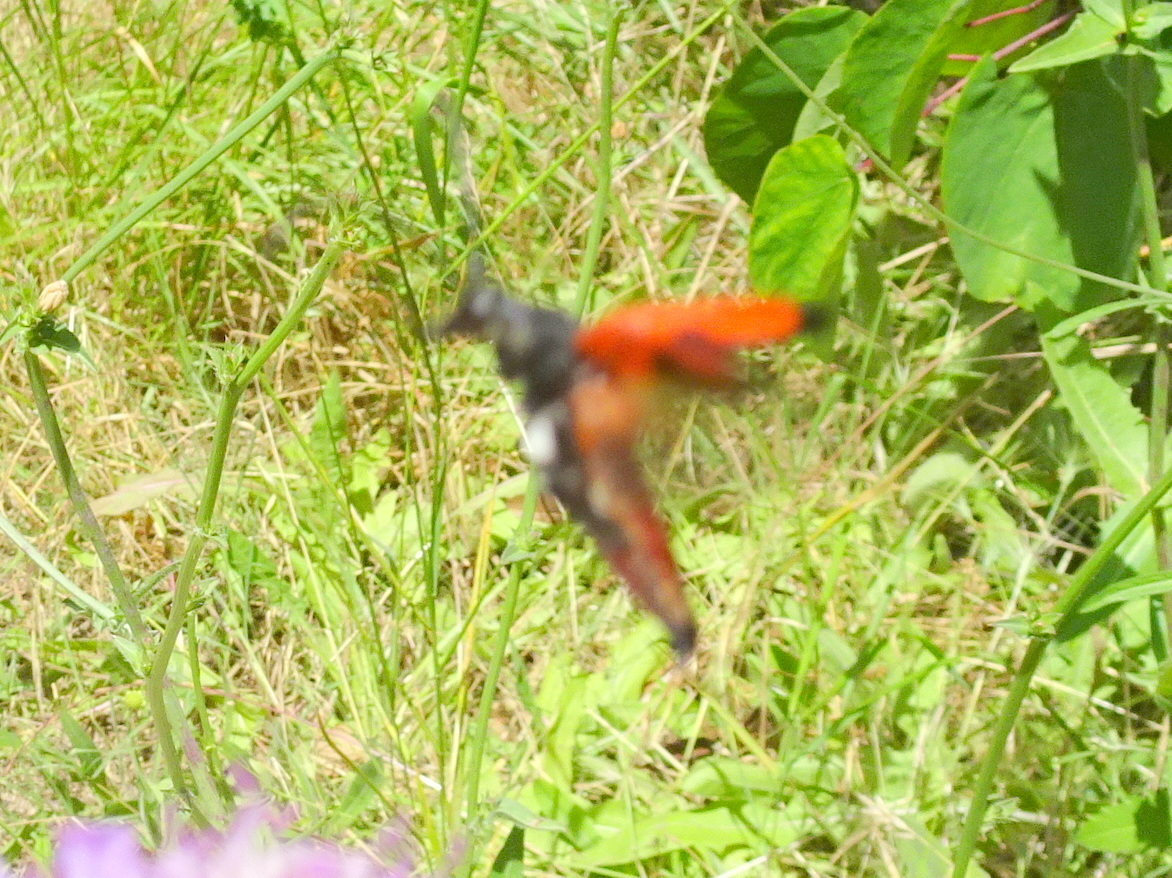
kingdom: Animalia
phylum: Arthropoda
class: Insecta
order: Coleoptera
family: Cerambycidae
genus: Stictoleptura
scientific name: Stictoleptura cordigera
